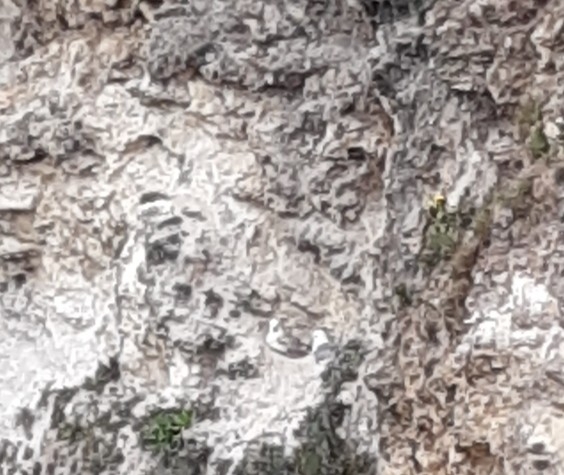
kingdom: Animalia
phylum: Chordata
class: Aves
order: Procellariiformes
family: Procellariidae
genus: Fulmarus
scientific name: Fulmarus glacialis
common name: Northern fulmar
